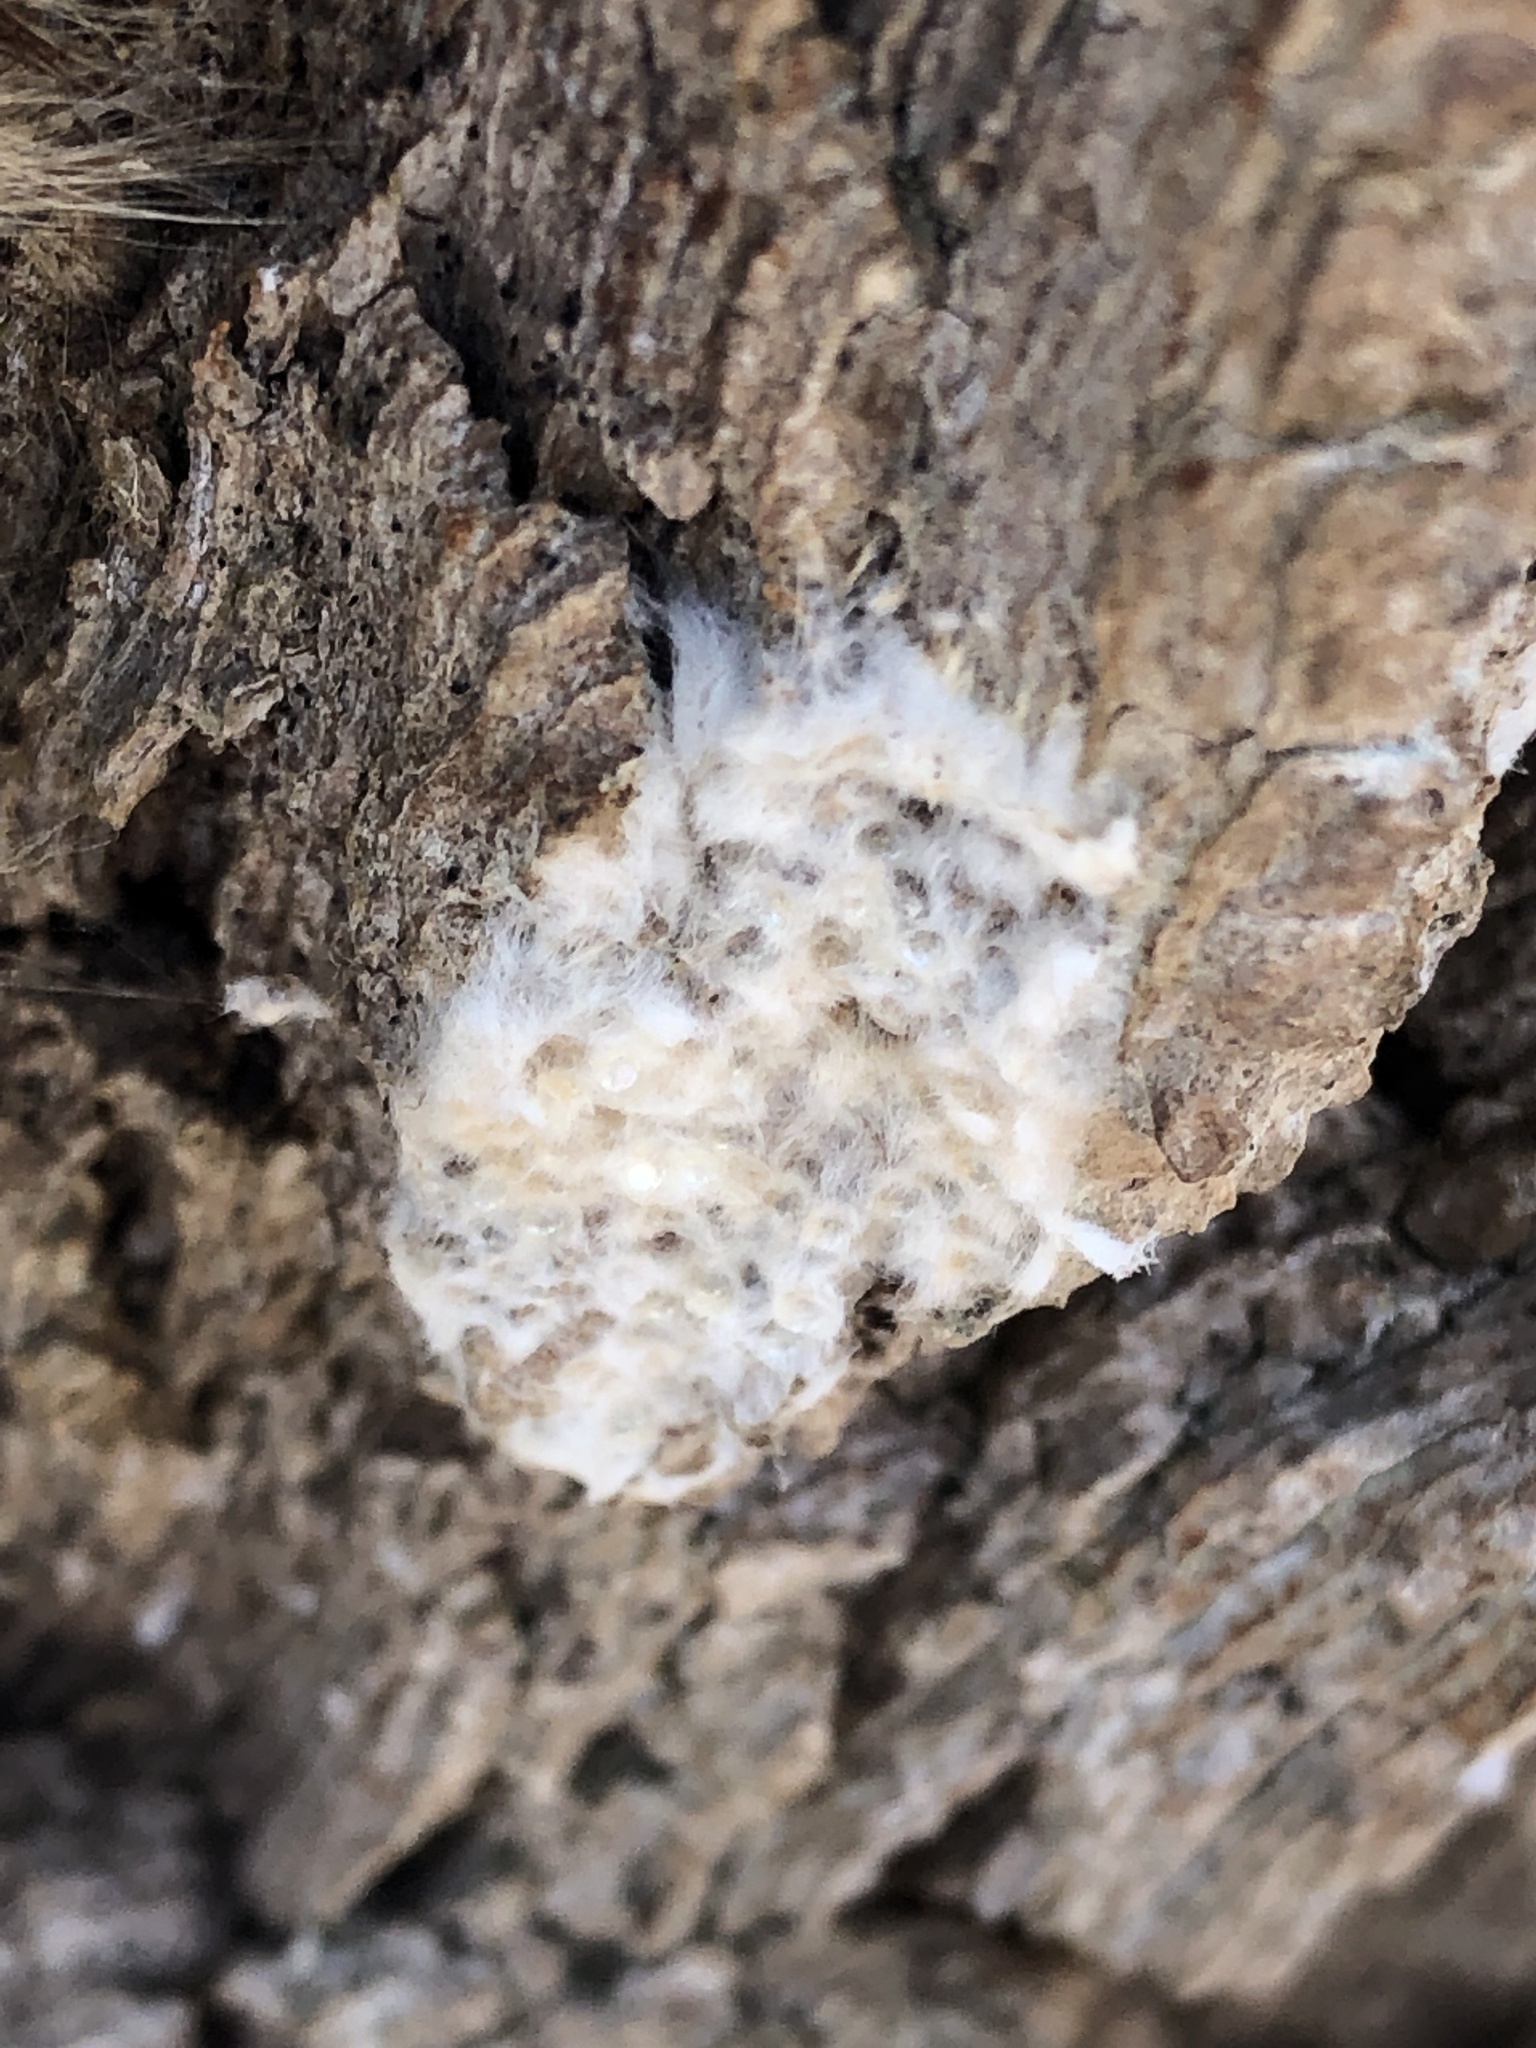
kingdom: Animalia
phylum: Arthropoda
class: Insecta
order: Lepidoptera
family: Erebidae
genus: Lymantria
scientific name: Lymantria dispar
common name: Gypsy moth
